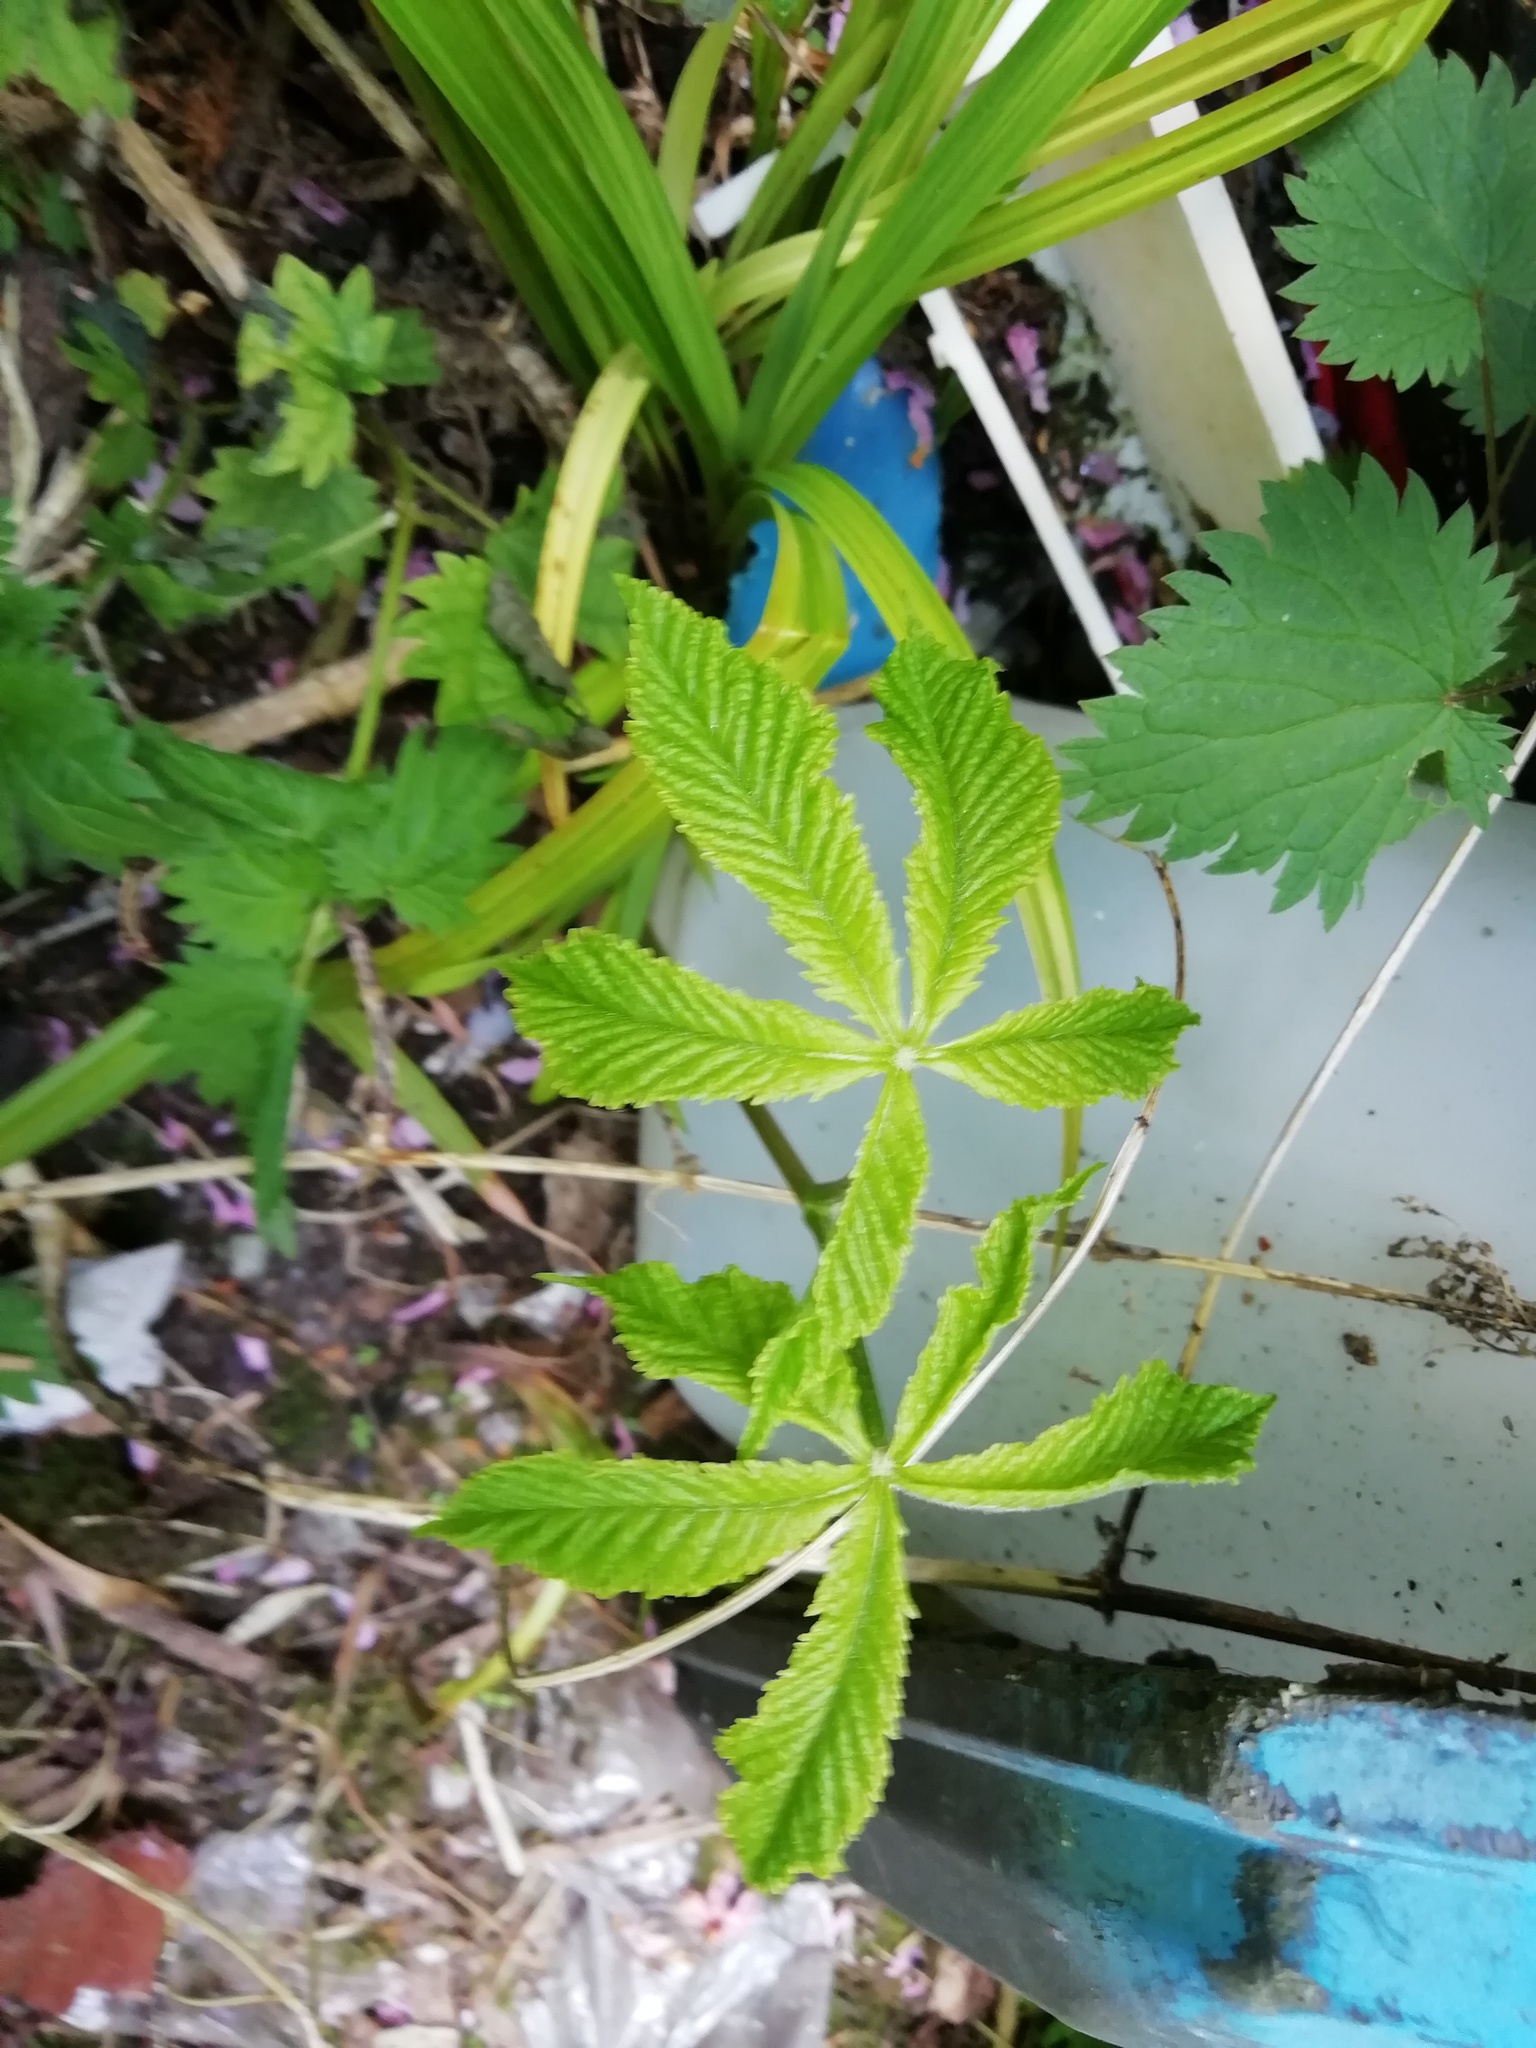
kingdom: Plantae
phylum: Tracheophyta
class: Magnoliopsida
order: Sapindales
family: Sapindaceae
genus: Aesculus
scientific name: Aesculus hippocastanum
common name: Horse-chestnut
